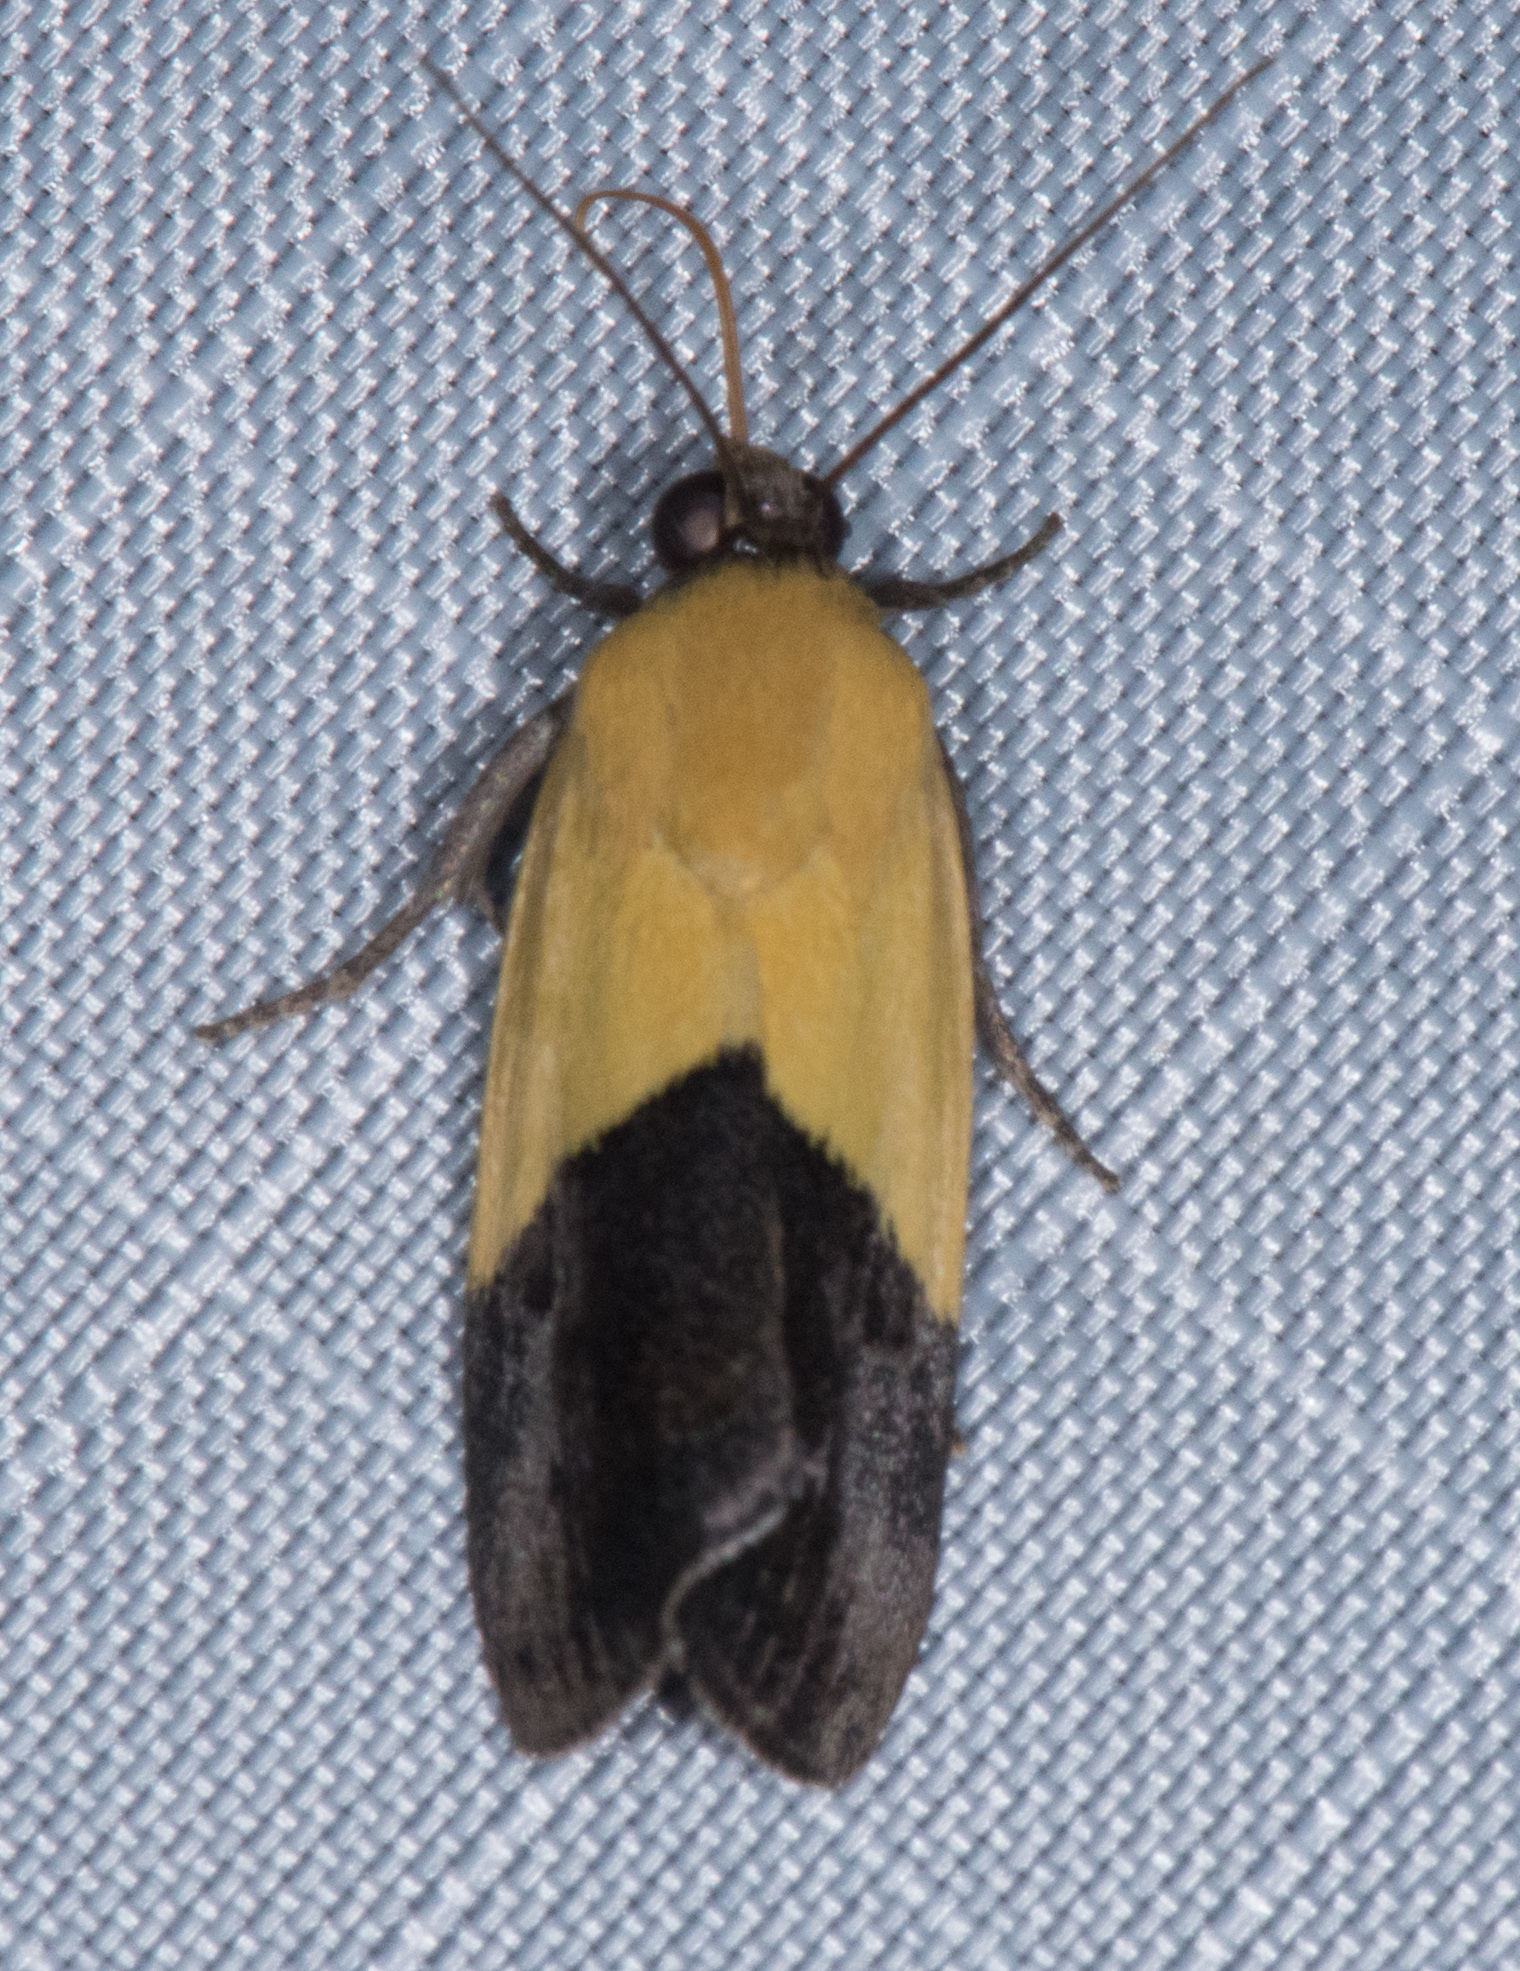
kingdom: Animalia
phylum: Arthropoda
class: Insecta
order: Lepidoptera
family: Noctuidae
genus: Acontia
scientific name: Acontia semiflava
